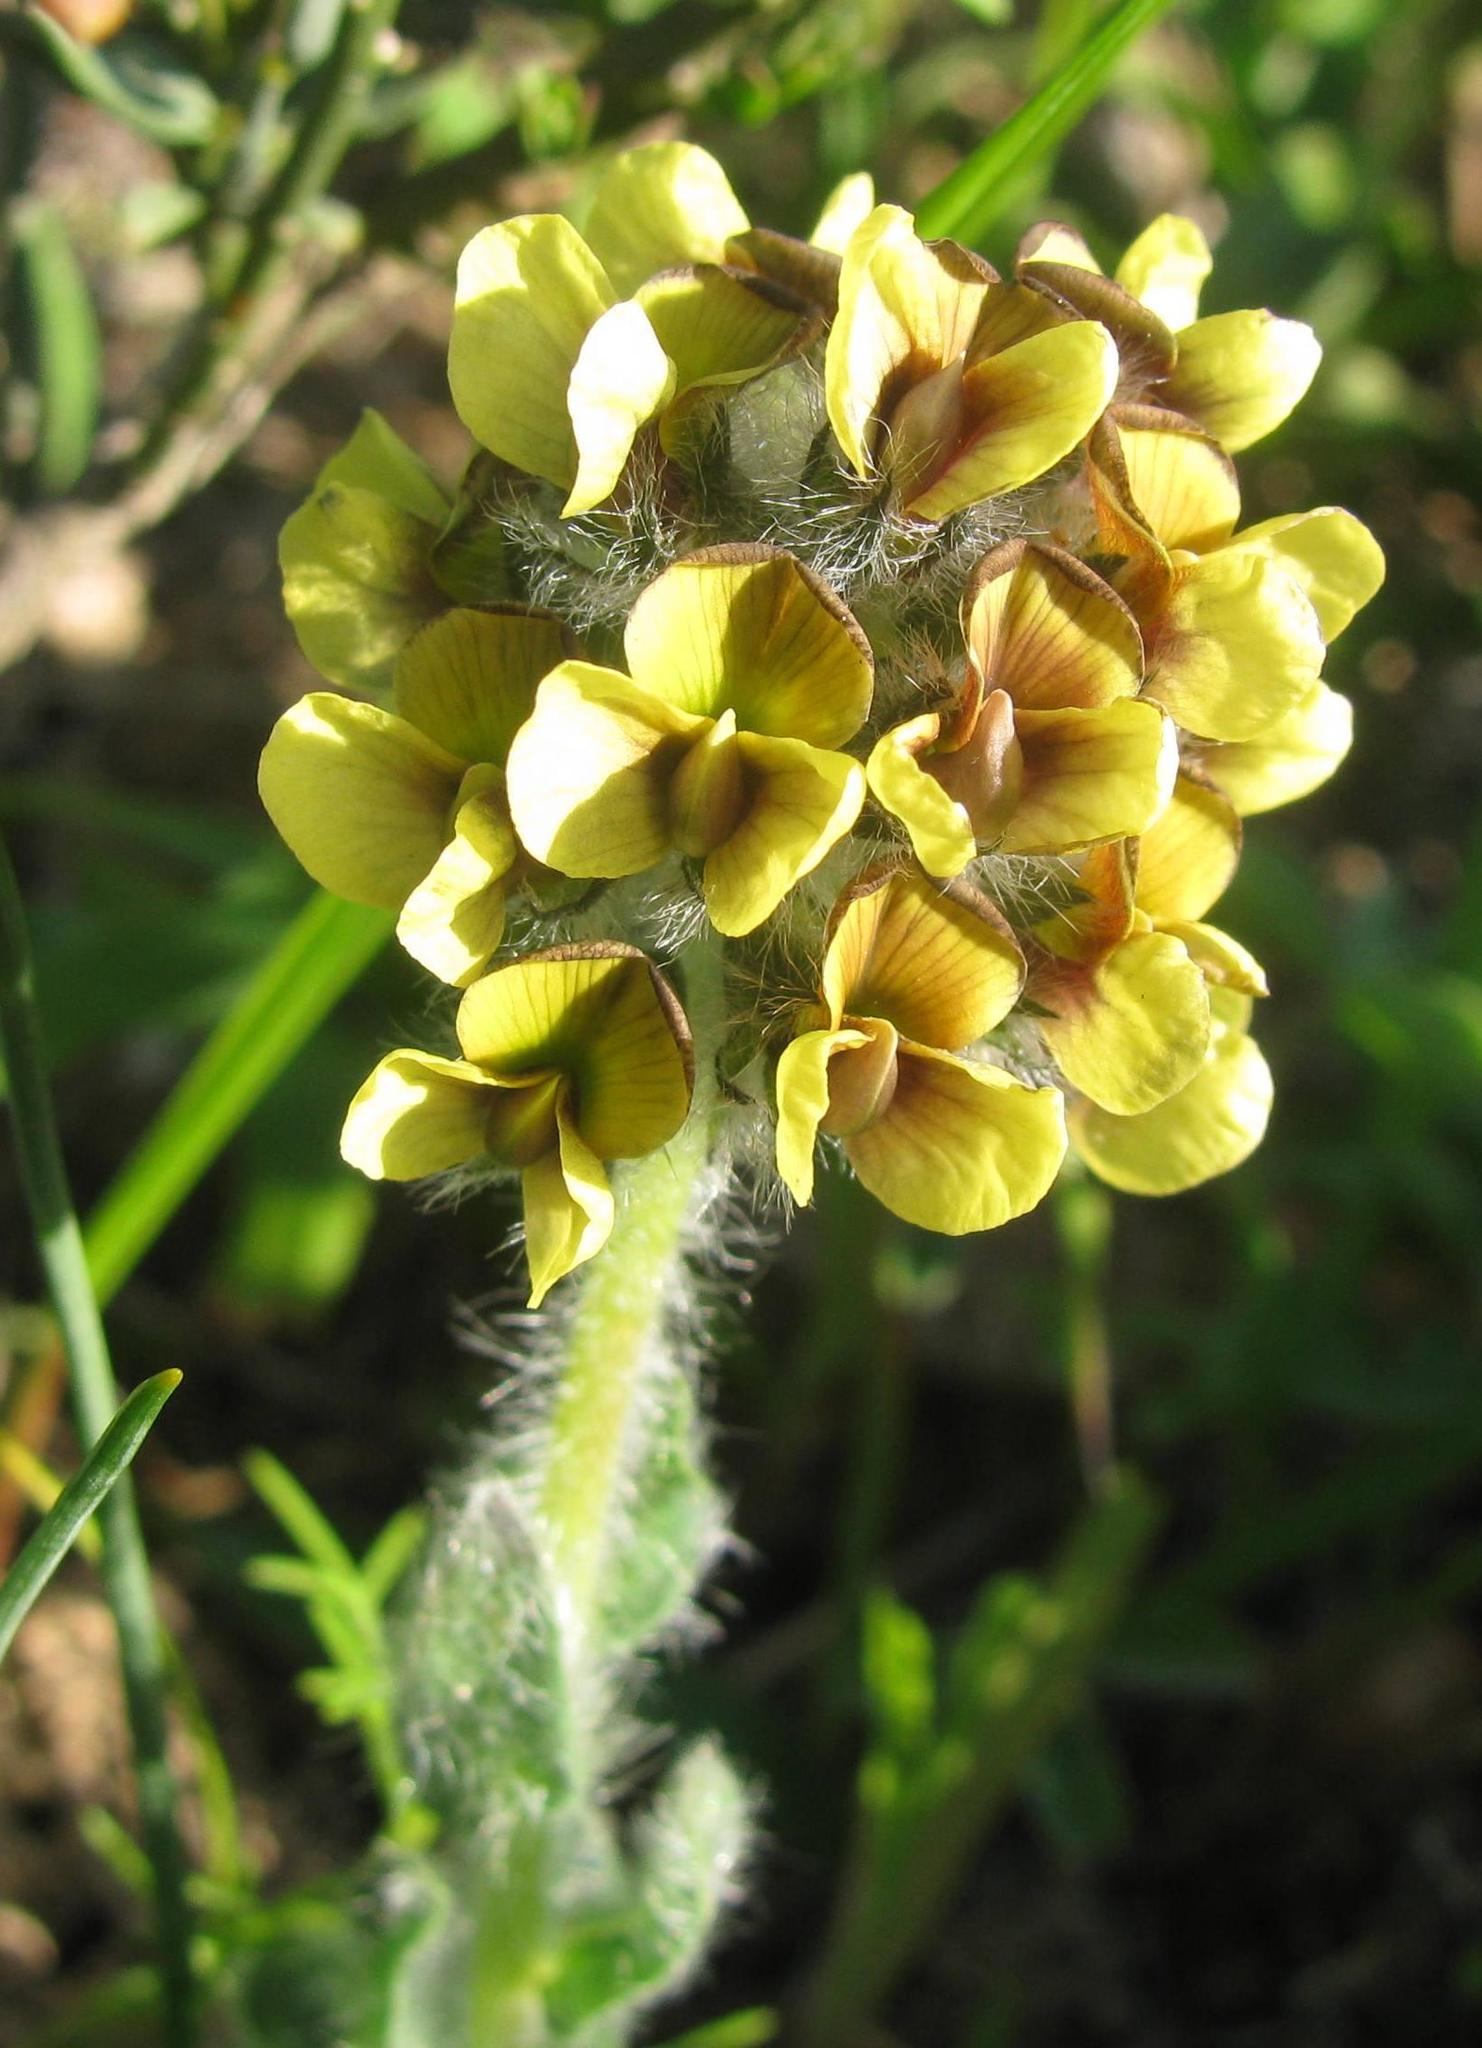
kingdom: Plantae
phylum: Tracheophyta
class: Magnoliopsida
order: Fabales
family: Fabaceae
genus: Euchlora
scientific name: Euchlora hirsuta
